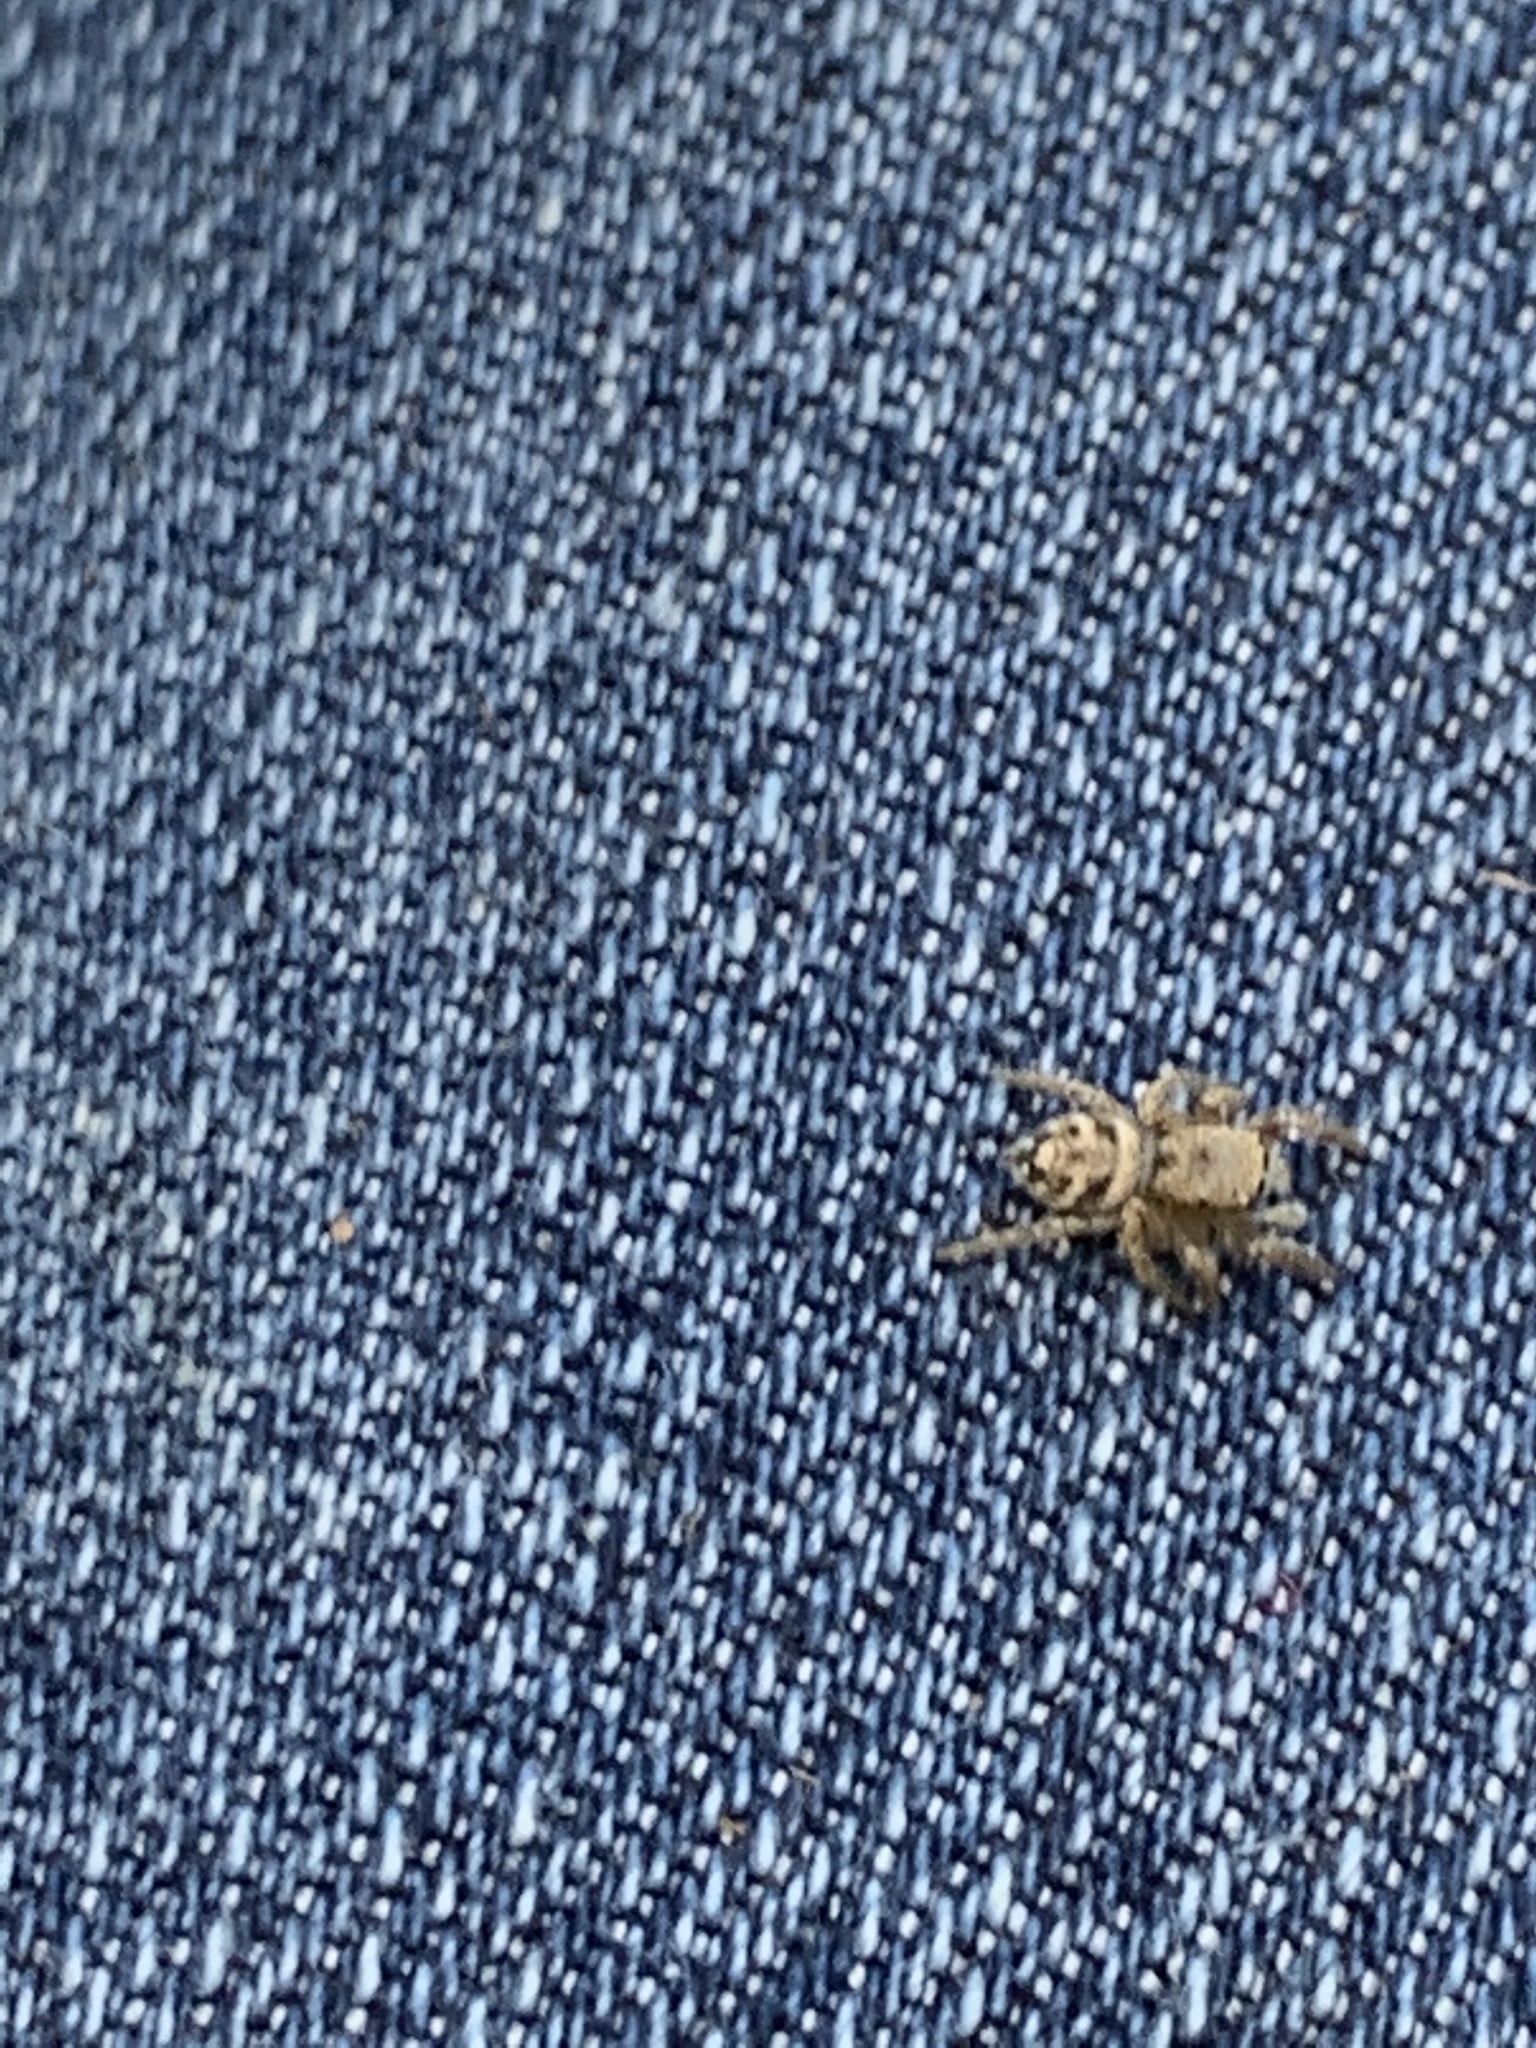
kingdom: Animalia
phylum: Arthropoda
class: Arachnida
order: Araneae
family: Salticidae
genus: Habronattus
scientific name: Habronattus coecatus
